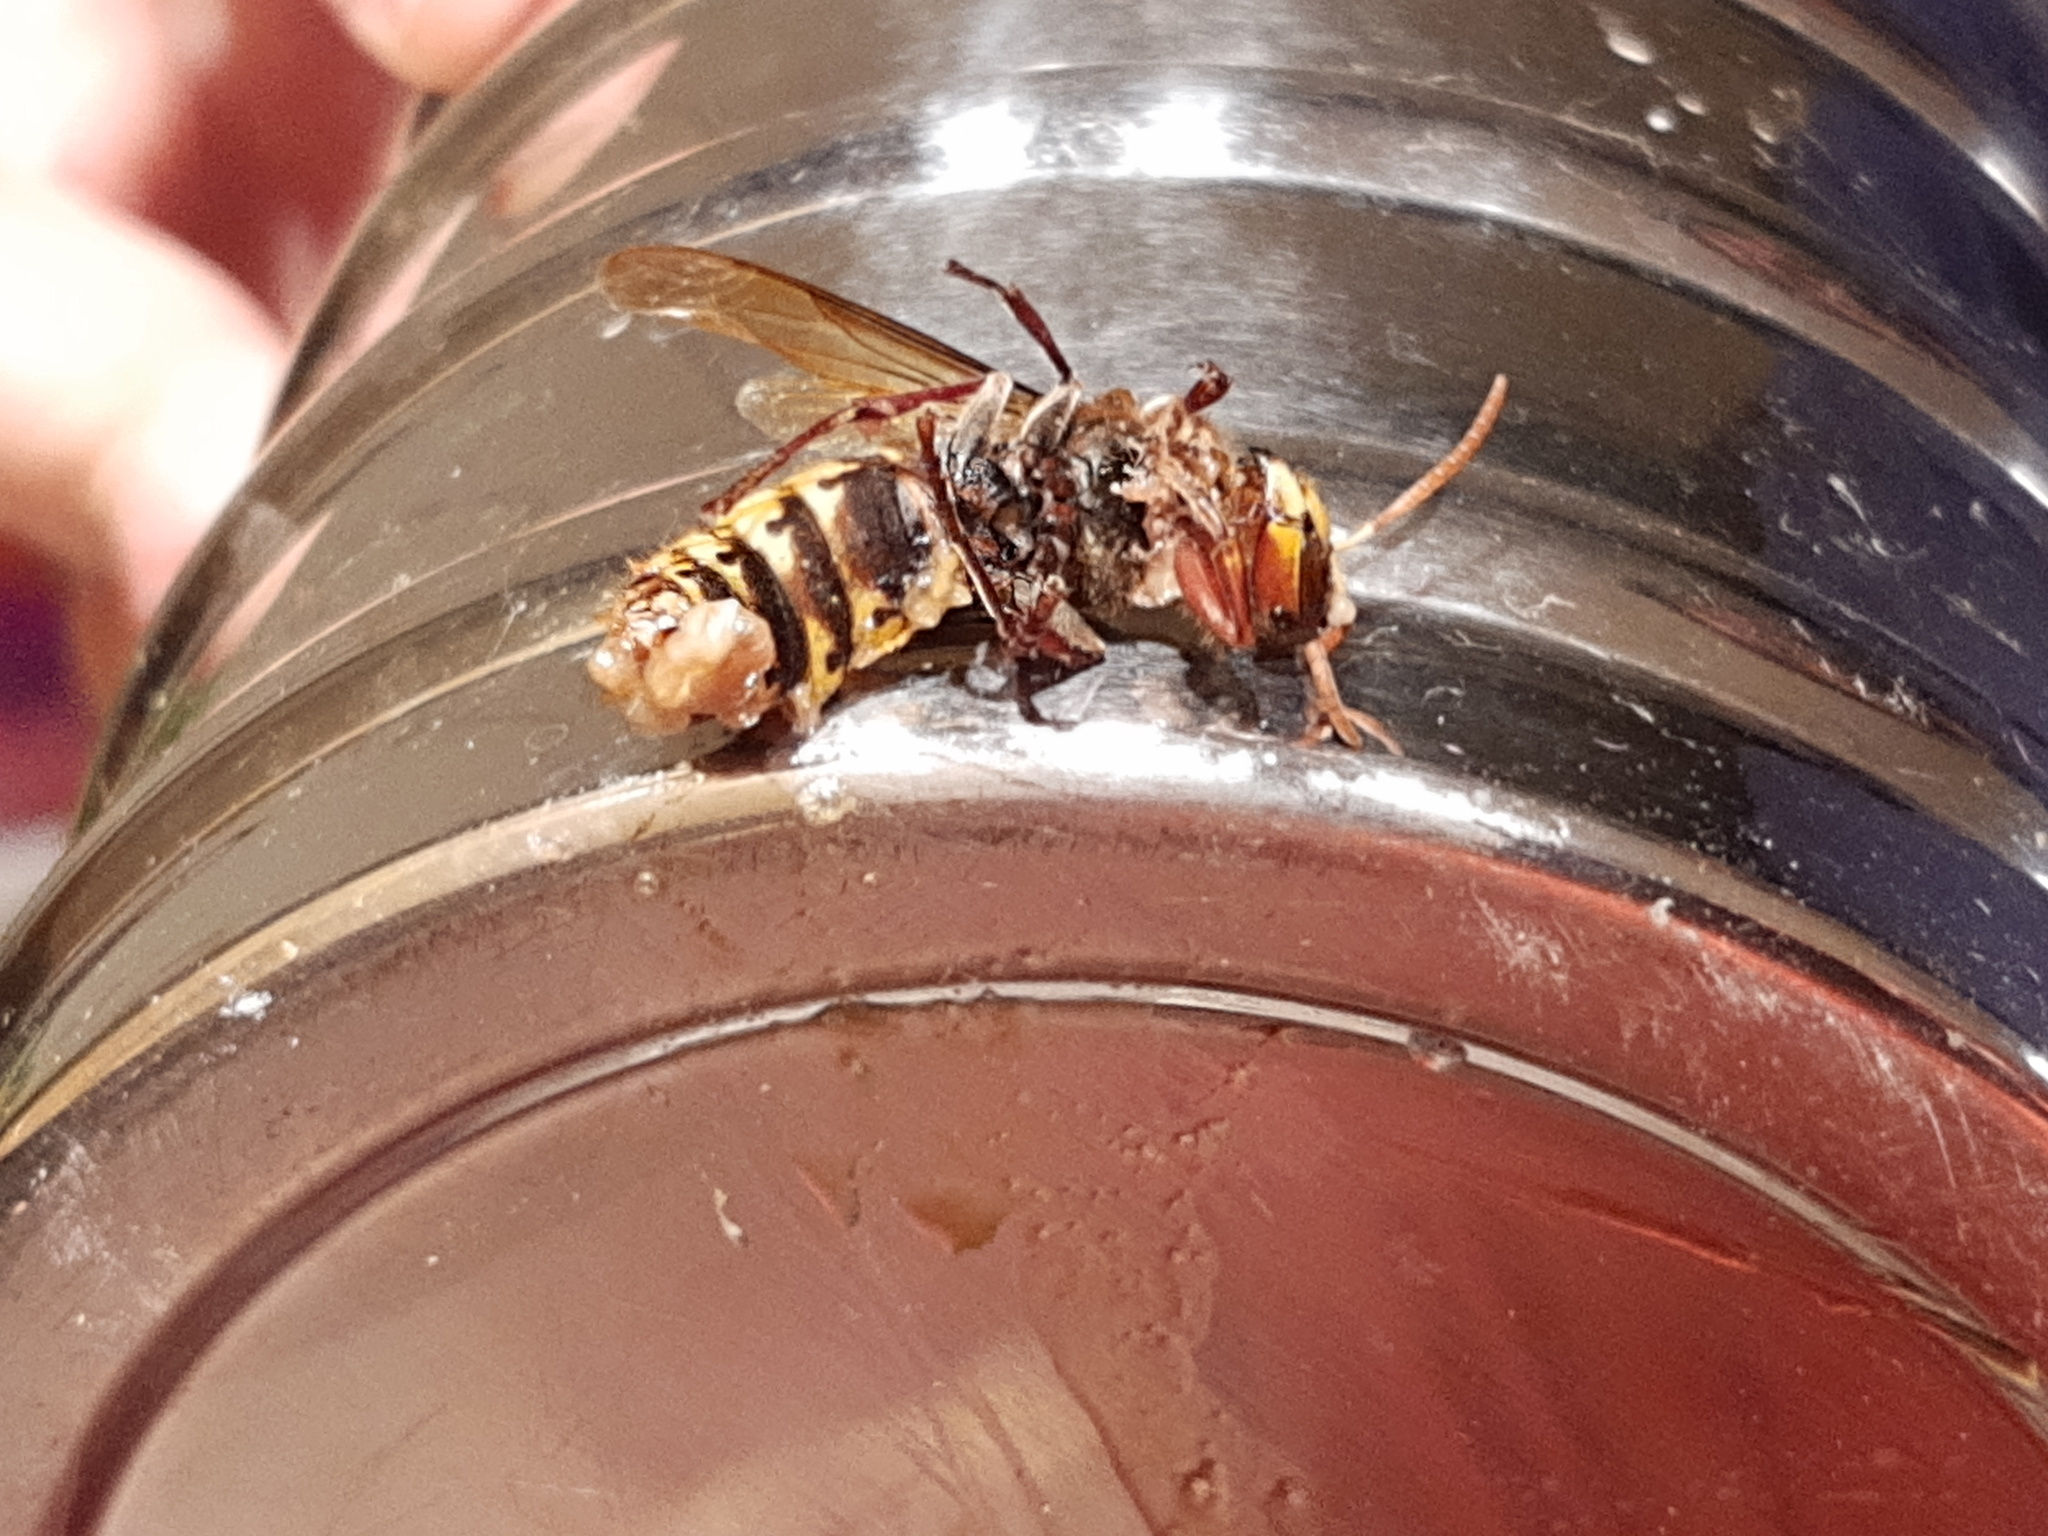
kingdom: Animalia
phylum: Arthropoda
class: Insecta
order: Hymenoptera
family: Vespidae
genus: Vespa
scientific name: Vespa crabro
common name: Hornet
